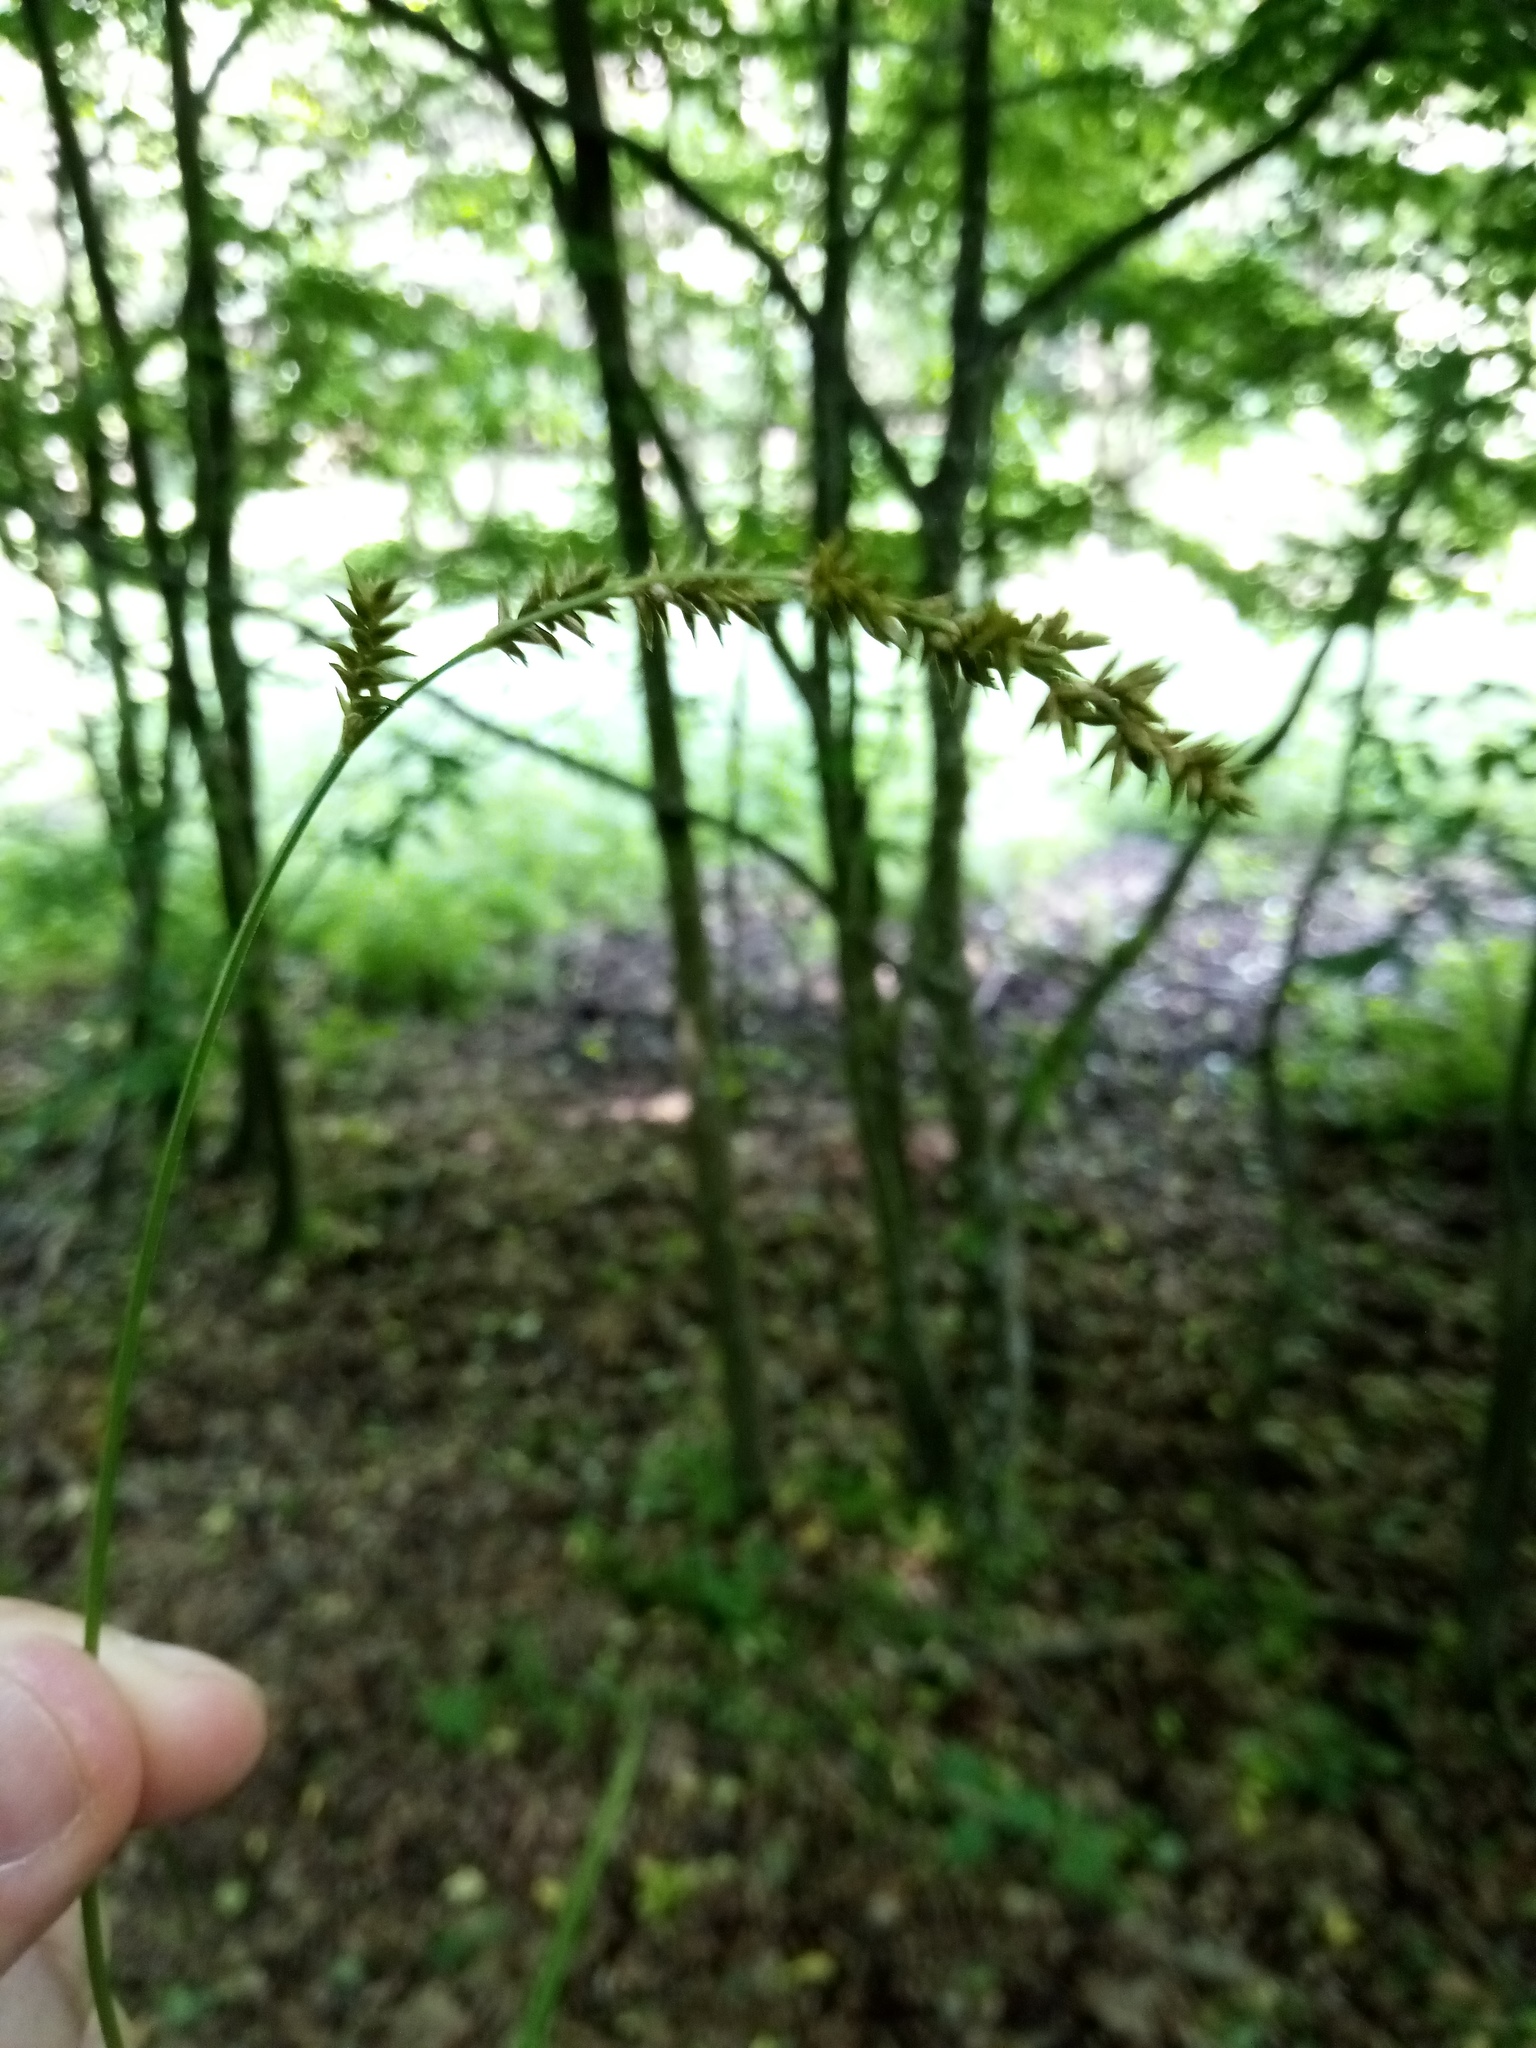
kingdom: Plantae
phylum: Tracheophyta
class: Liliopsida
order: Poales
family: Cyperaceae
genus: Carex
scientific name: Carex elongata
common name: Elongated sedge
